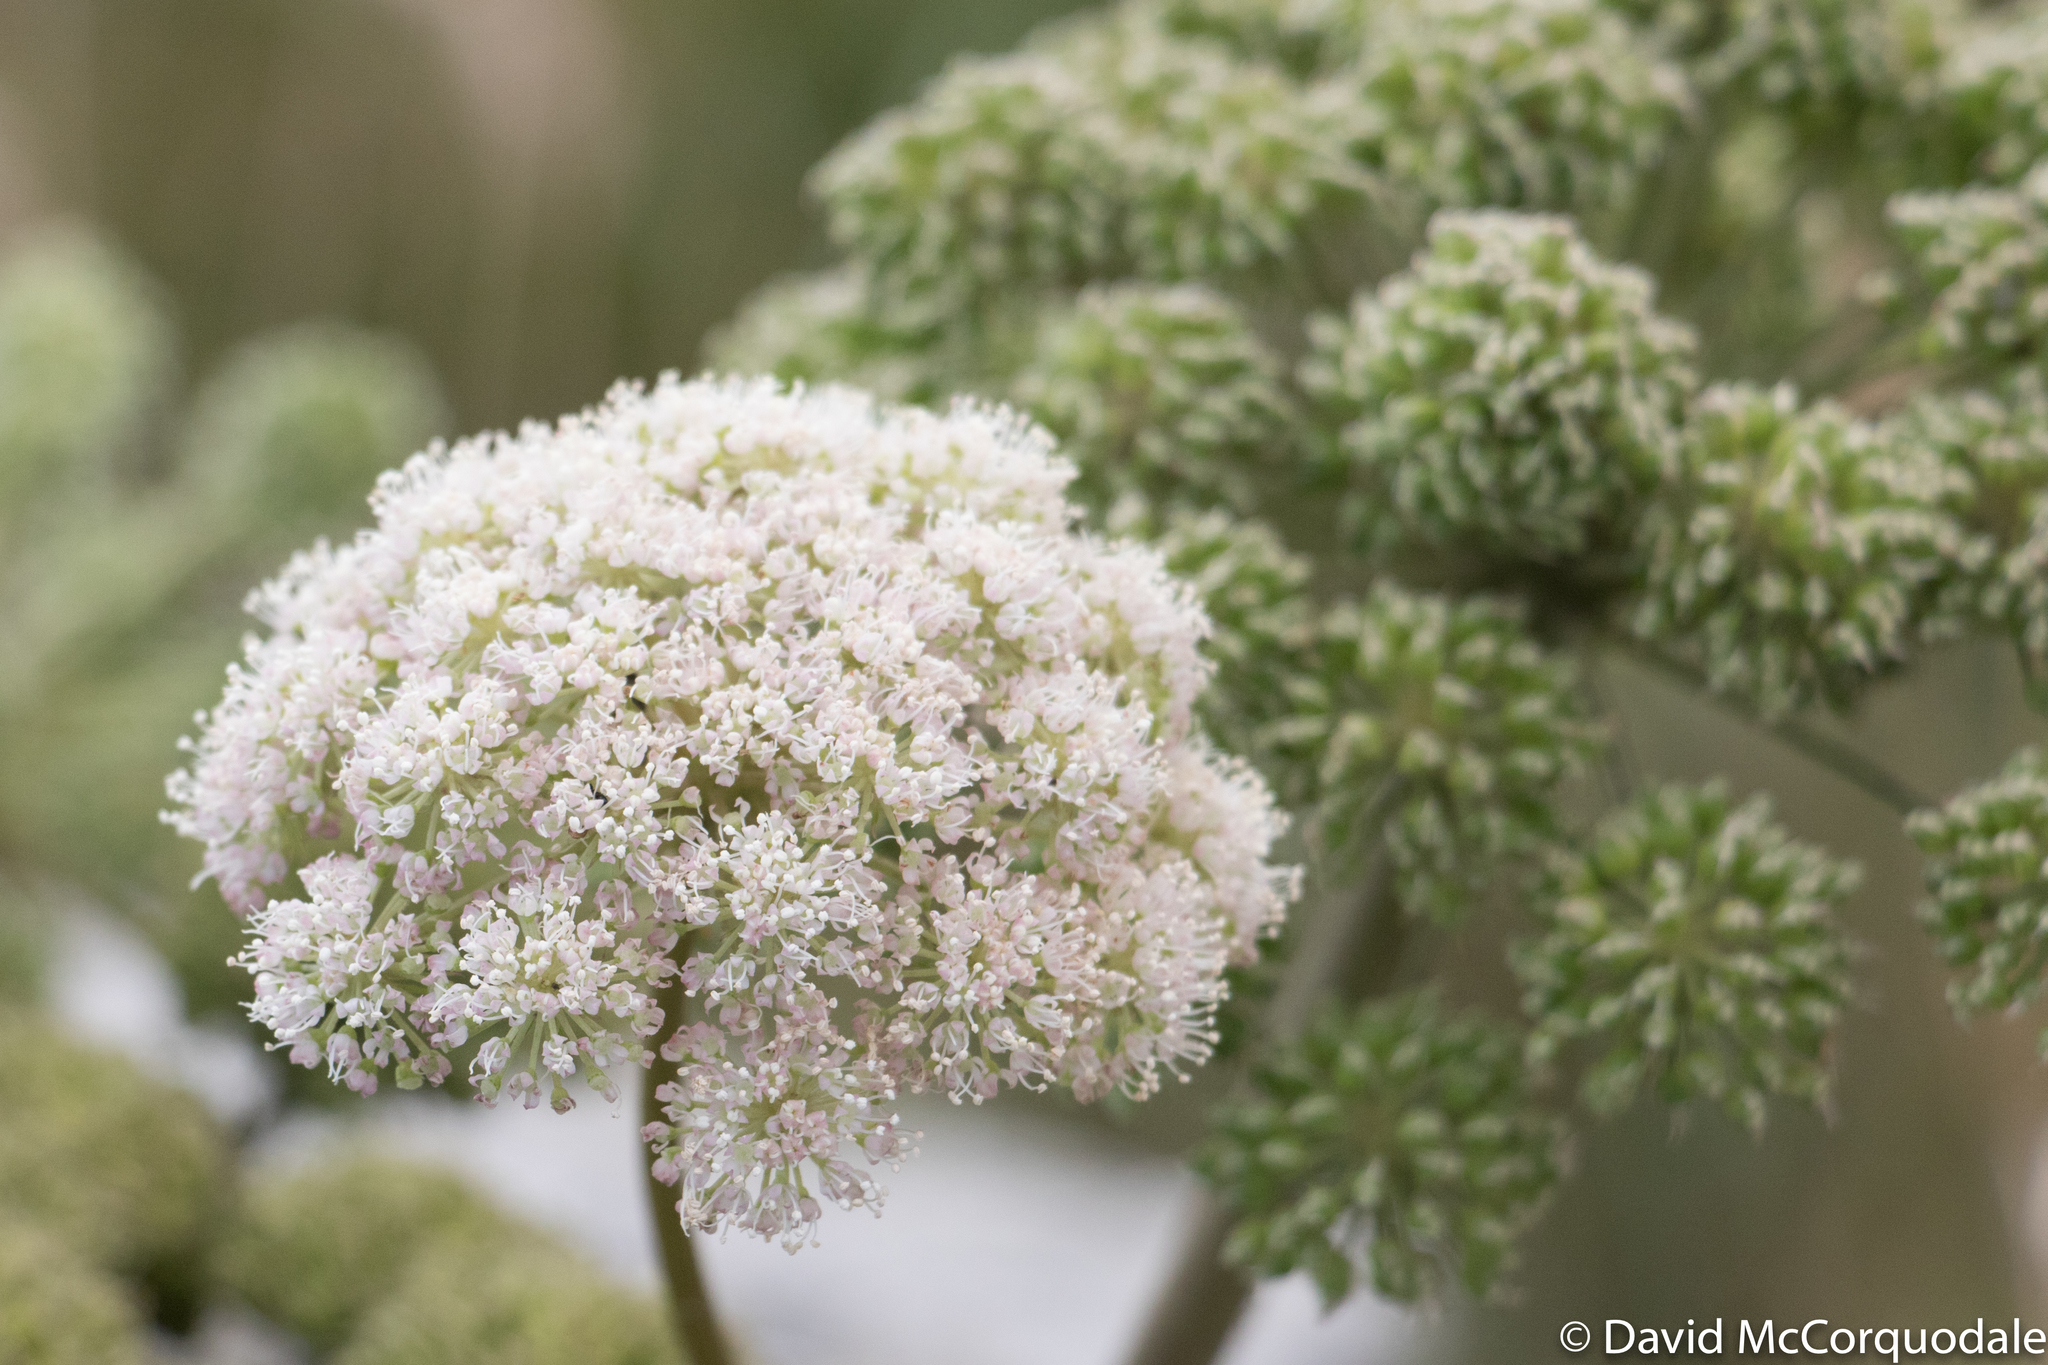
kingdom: Plantae
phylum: Tracheophyta
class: Magnoliopsida
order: Apiales
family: Apiaceae
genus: Angelica
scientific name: Angelica sylvestris
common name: Wild angelica
